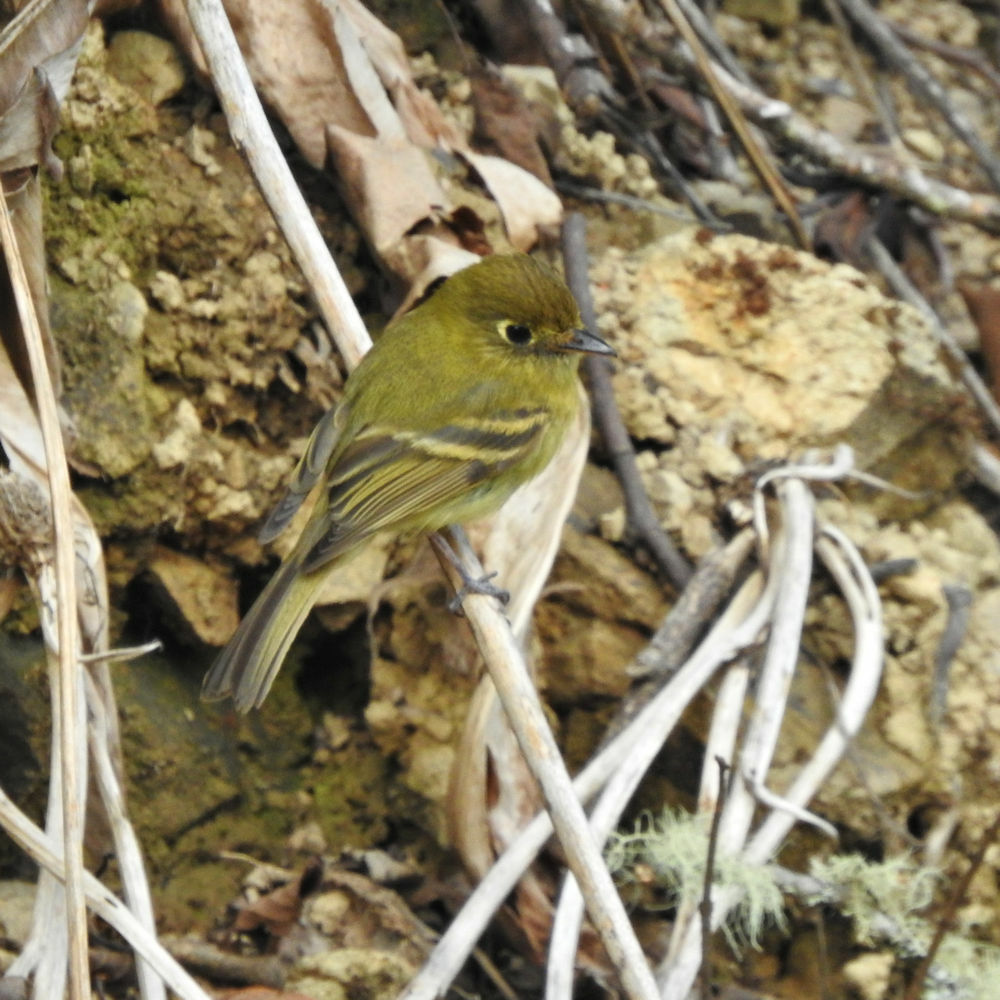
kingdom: Animalia
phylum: Chordata
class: Aves
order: Passeriformes
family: Tyrannidae
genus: Empidonax
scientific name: Empidonax flavescens
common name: Yellowish flycatcher
